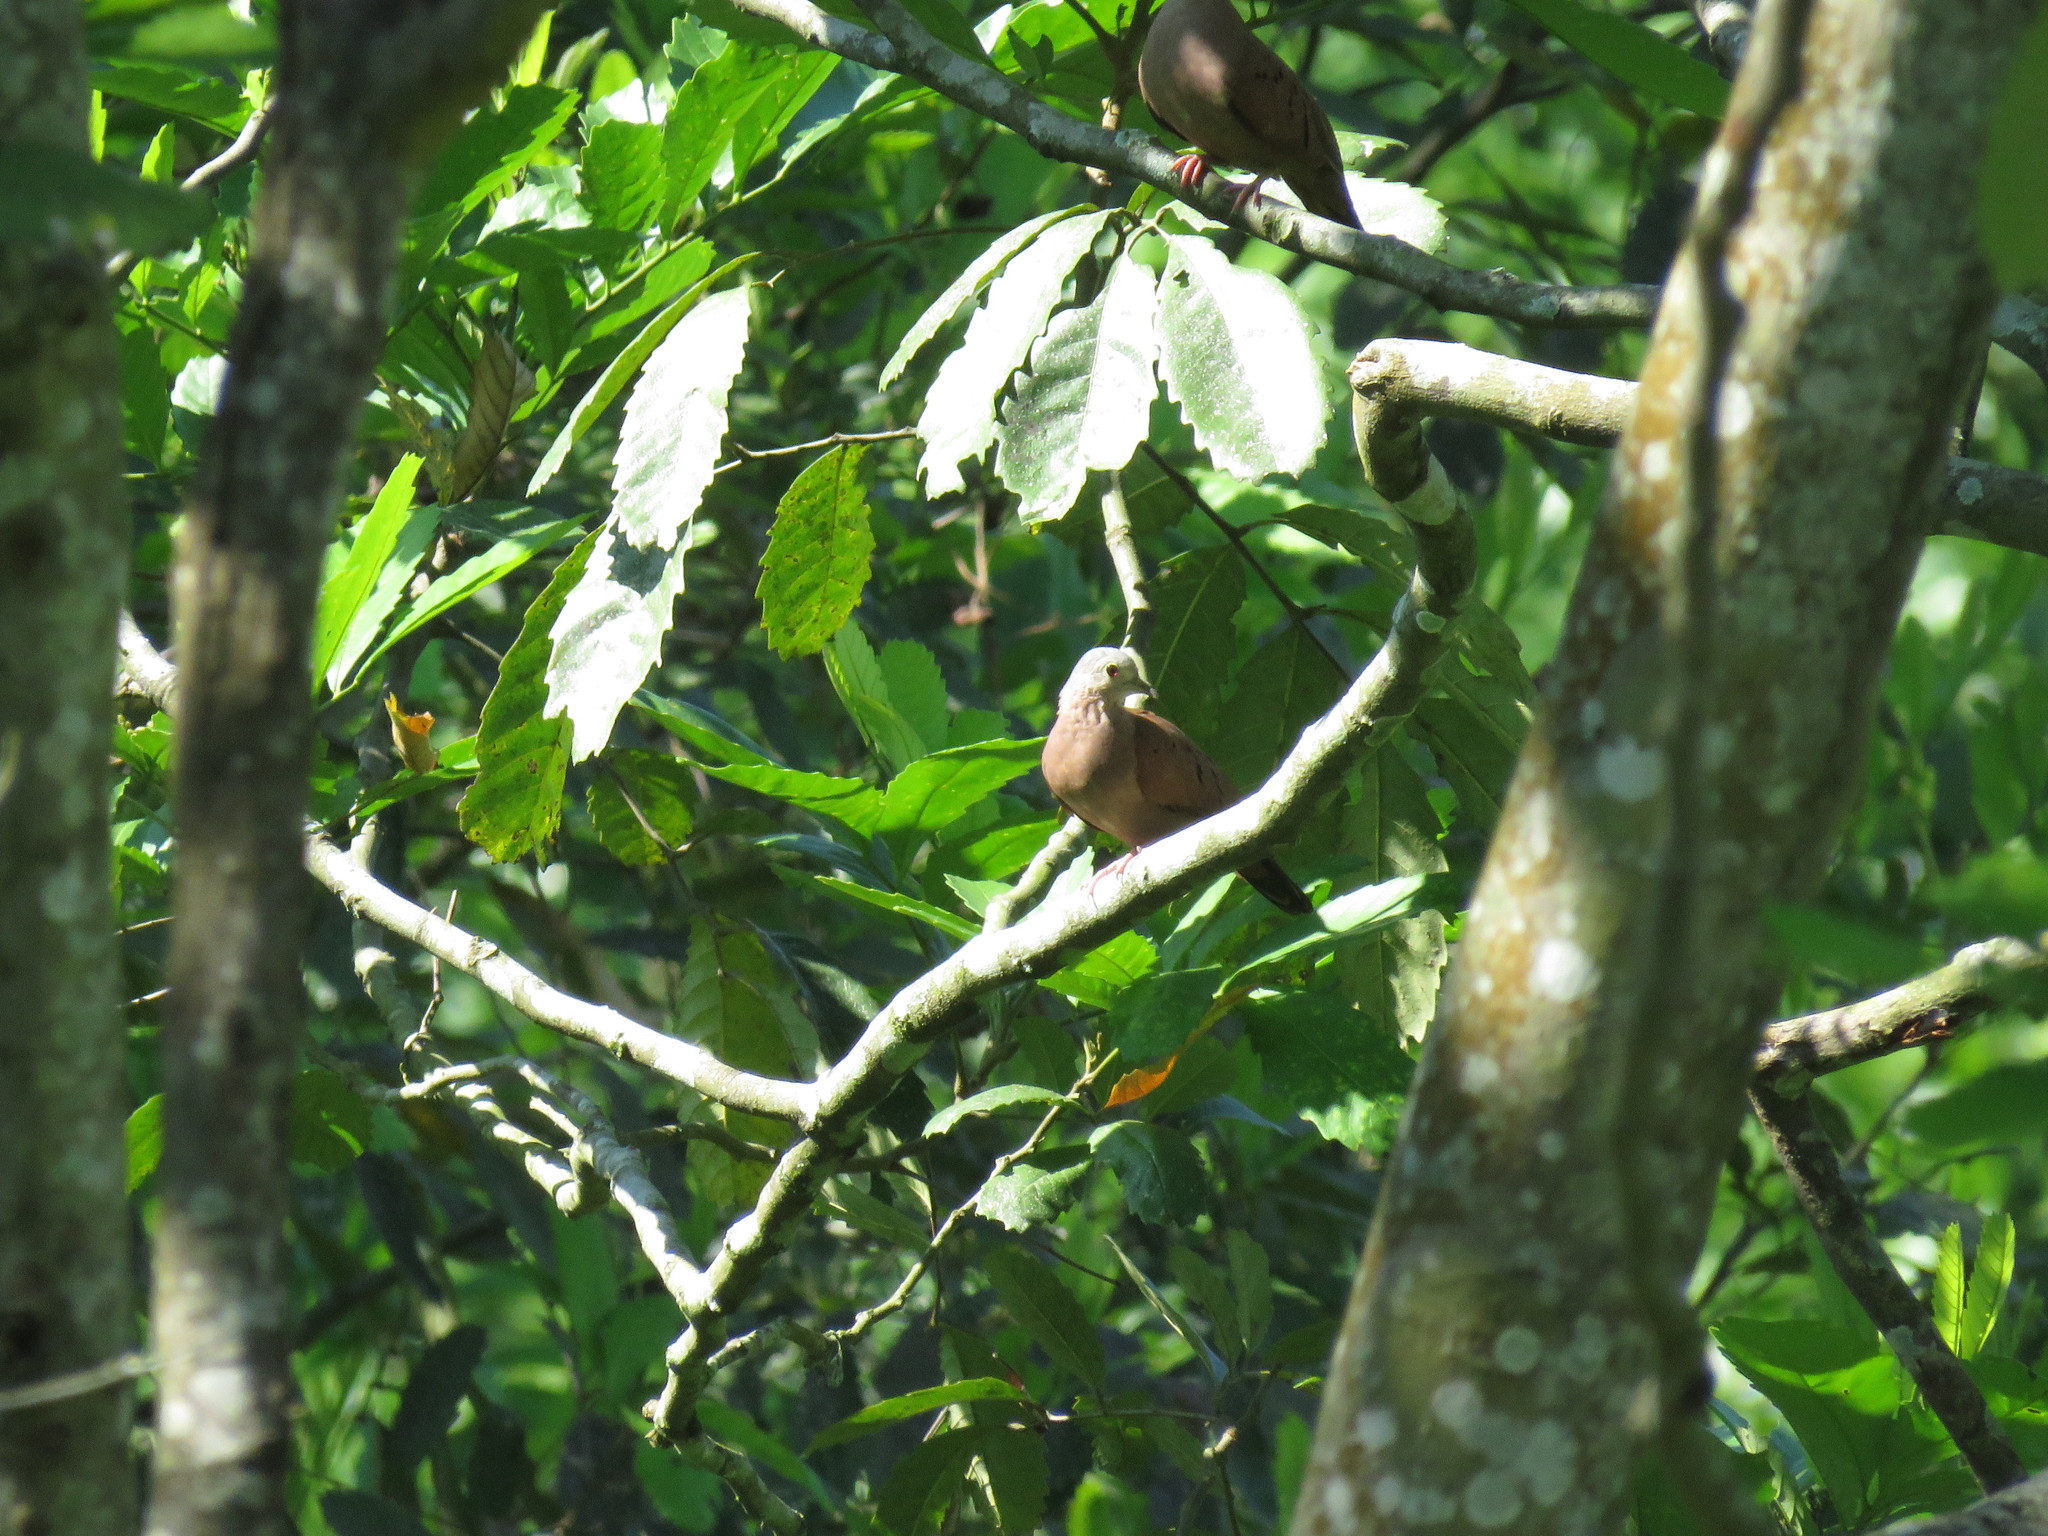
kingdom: Animalia
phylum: Chordata
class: Aves
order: Columbiformes
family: Columbidae
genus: Columbina
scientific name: Columbina talpacoti
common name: Ruddy ground dove
